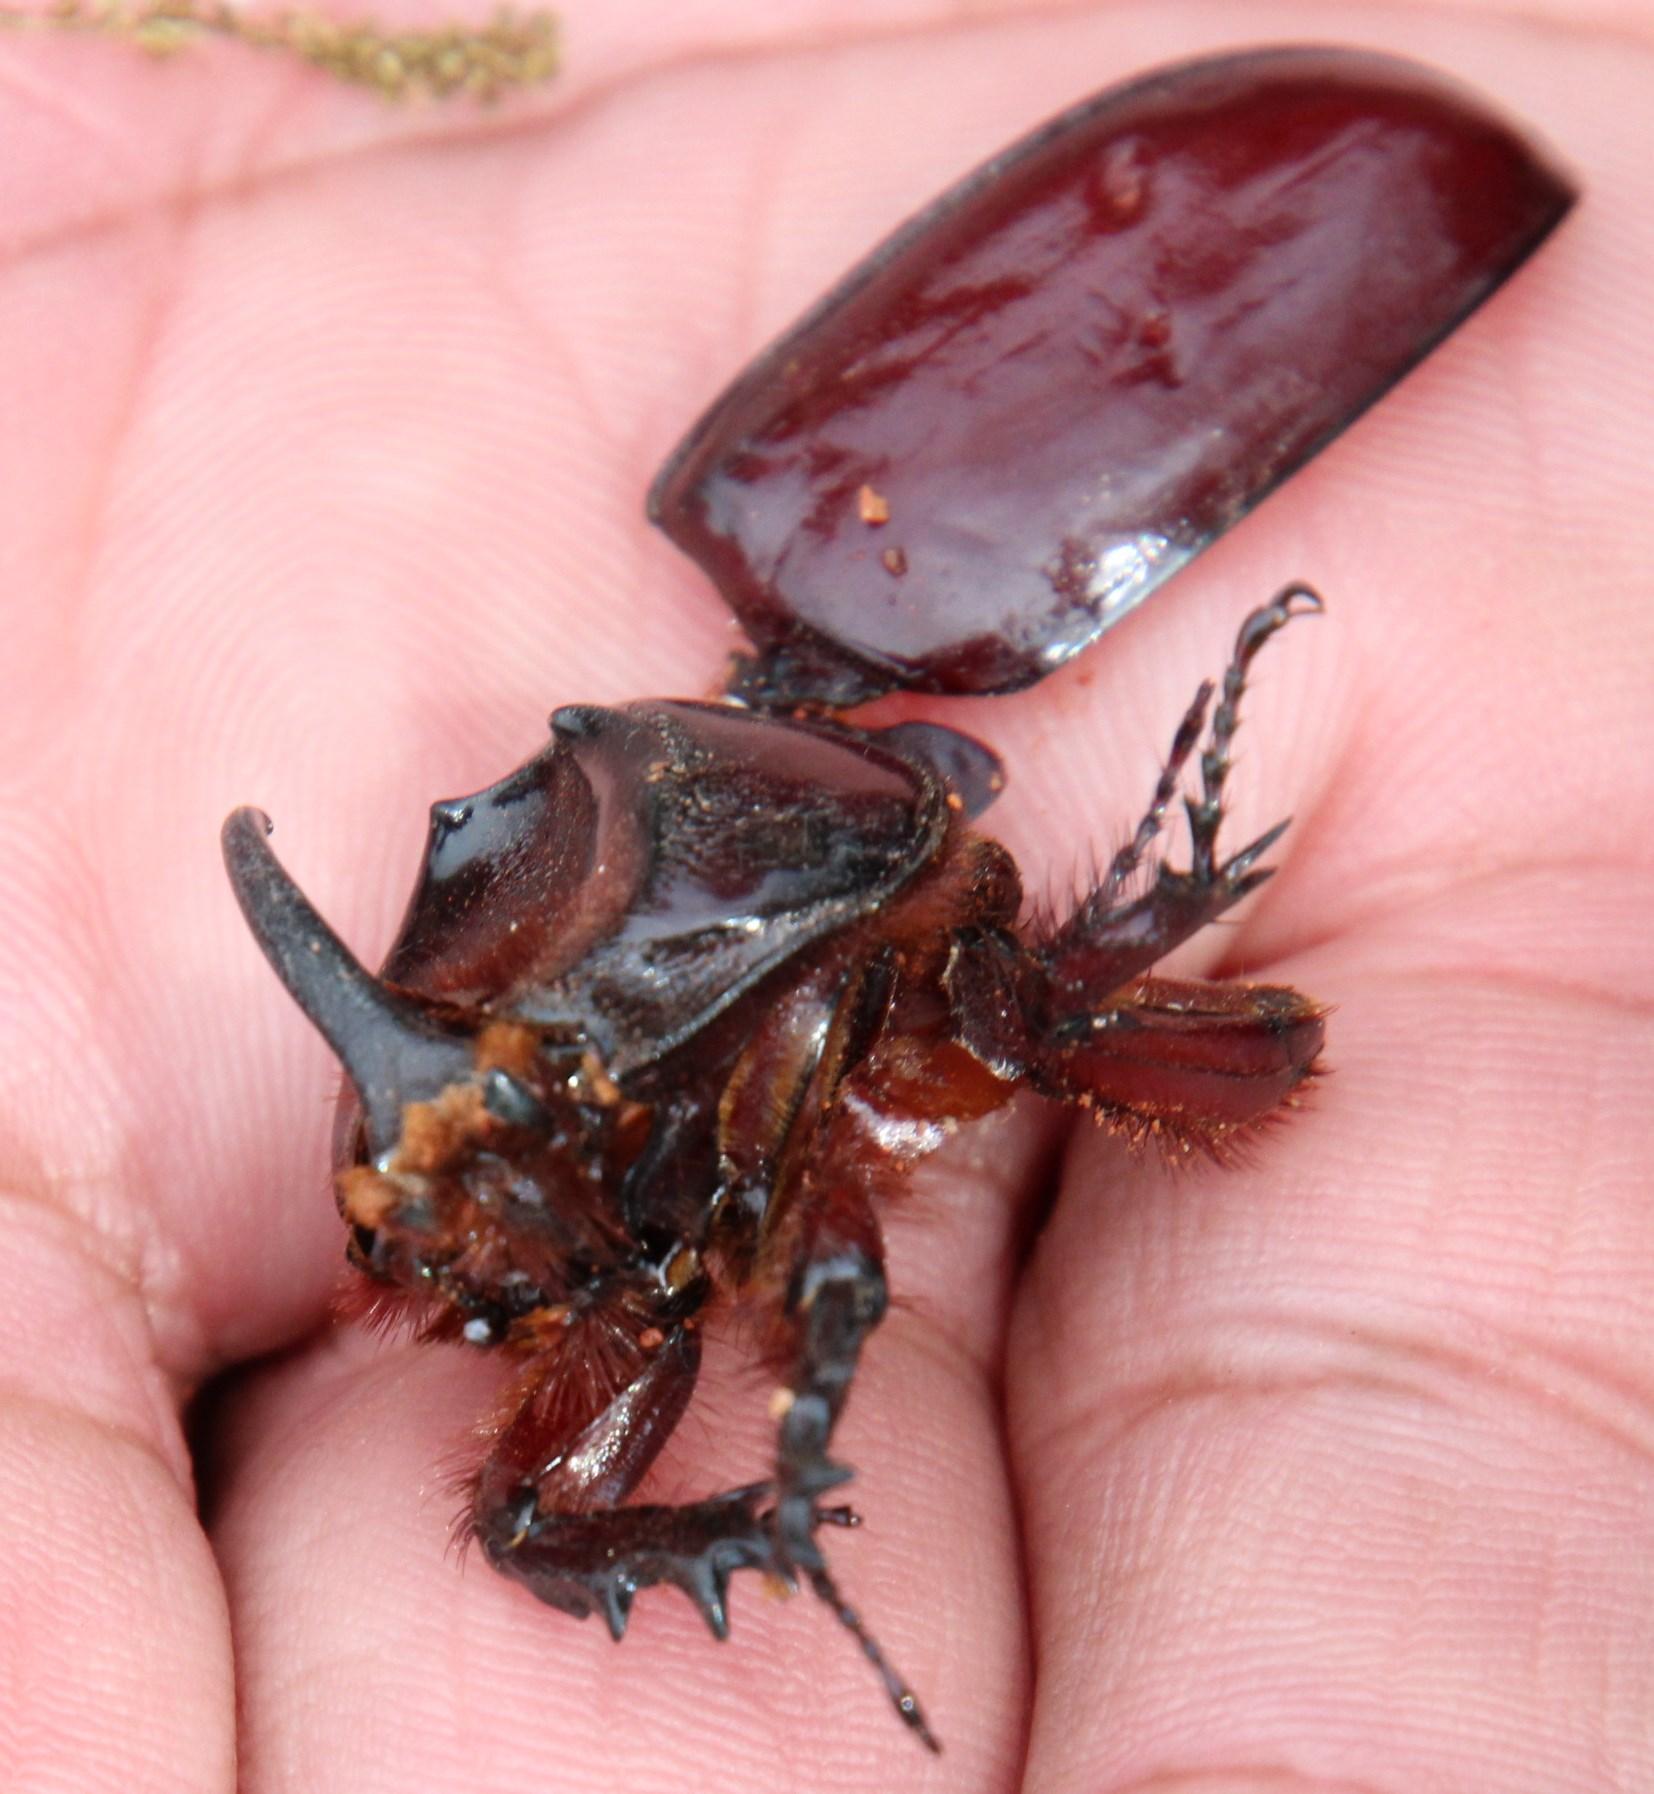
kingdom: Animalia
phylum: Arthropoda
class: Insecta
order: Coleoptera
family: Scarabaeidae
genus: Oryctes
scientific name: Oryctes boas
